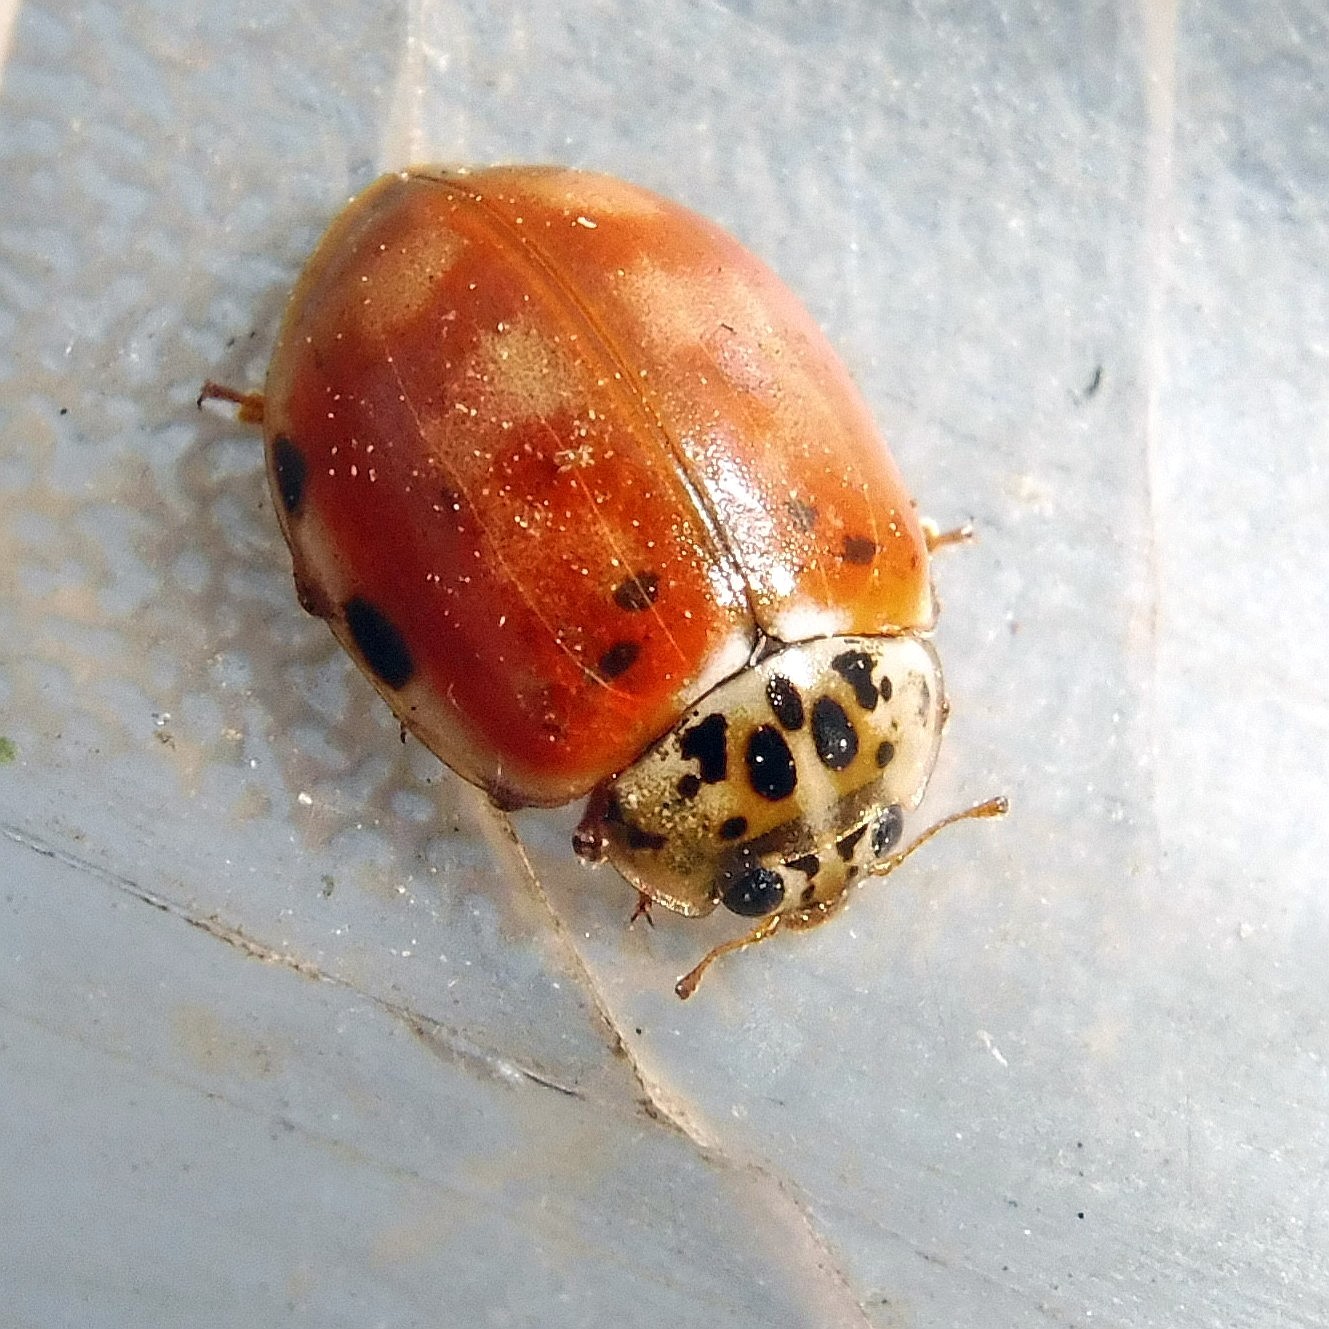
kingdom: Animalia
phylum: Arthropoda
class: Insecta
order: Coleoptera
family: Coccinellidae
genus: Harmonia
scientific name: Harmonia quadripunctata
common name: Cream-streaked ladybird
